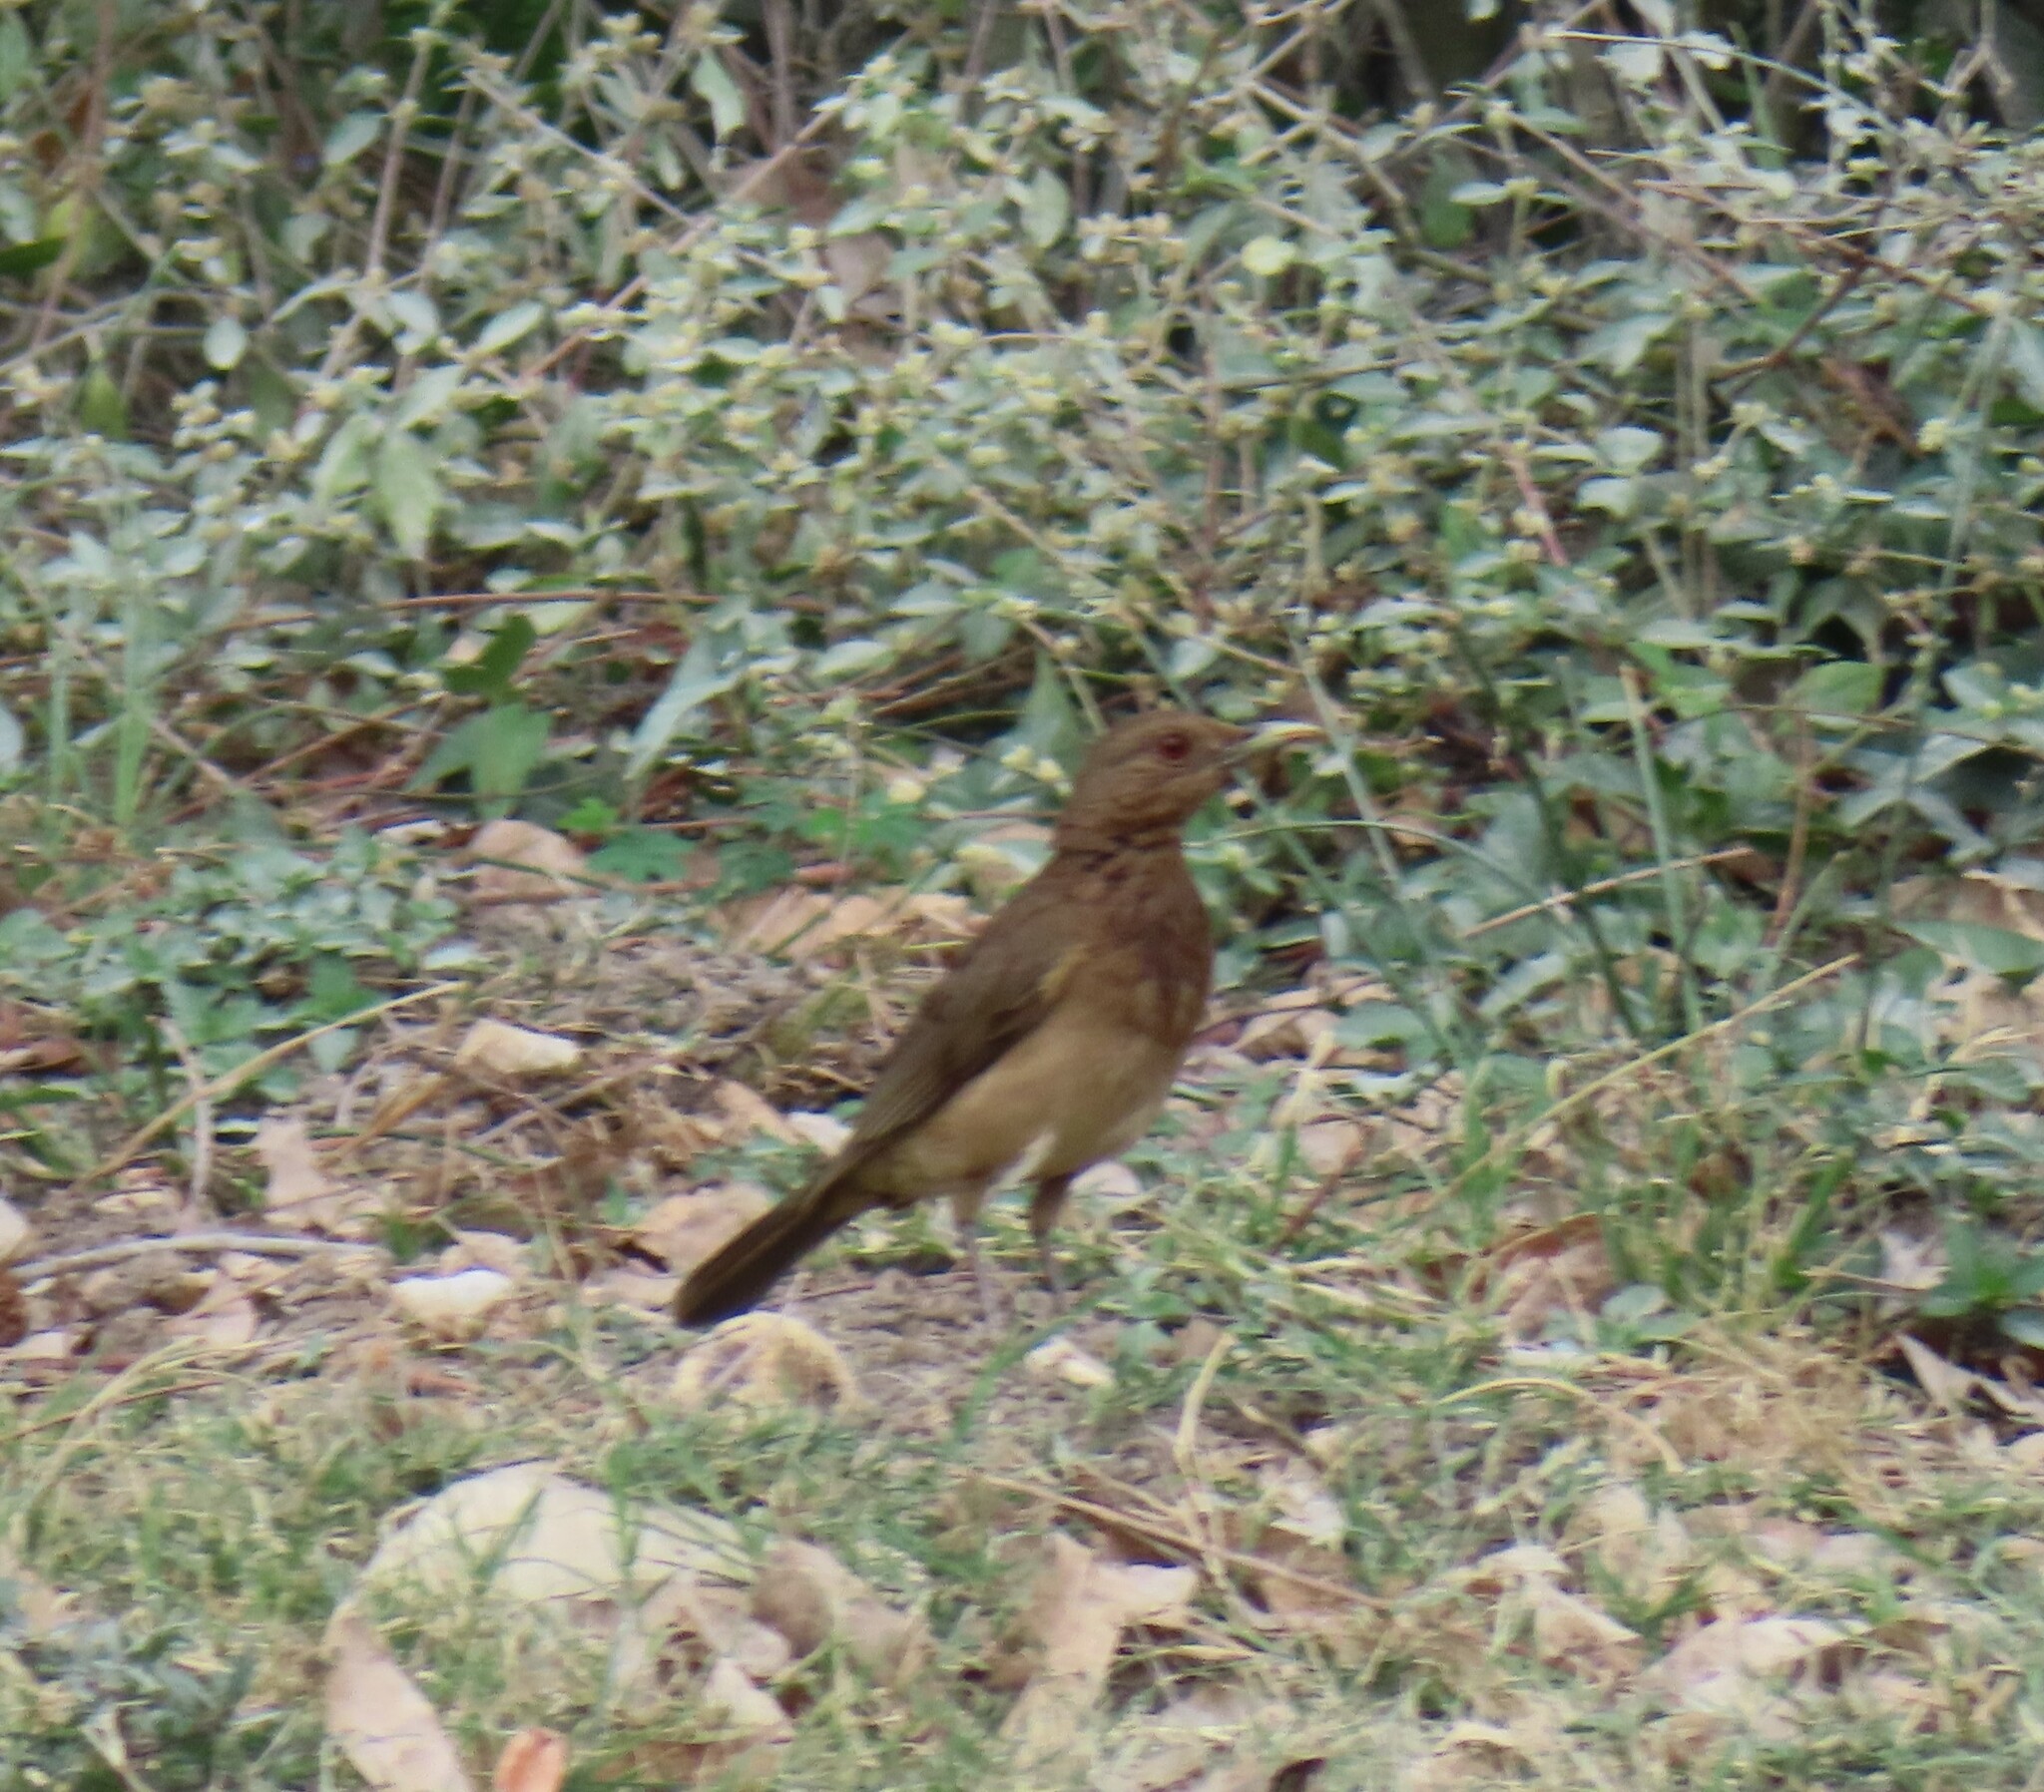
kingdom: Animalia
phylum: Chordata
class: Aves
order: Passeriformes
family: Turdidae
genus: Turdus
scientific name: Turdus grayi
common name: Clay-colored thrush
